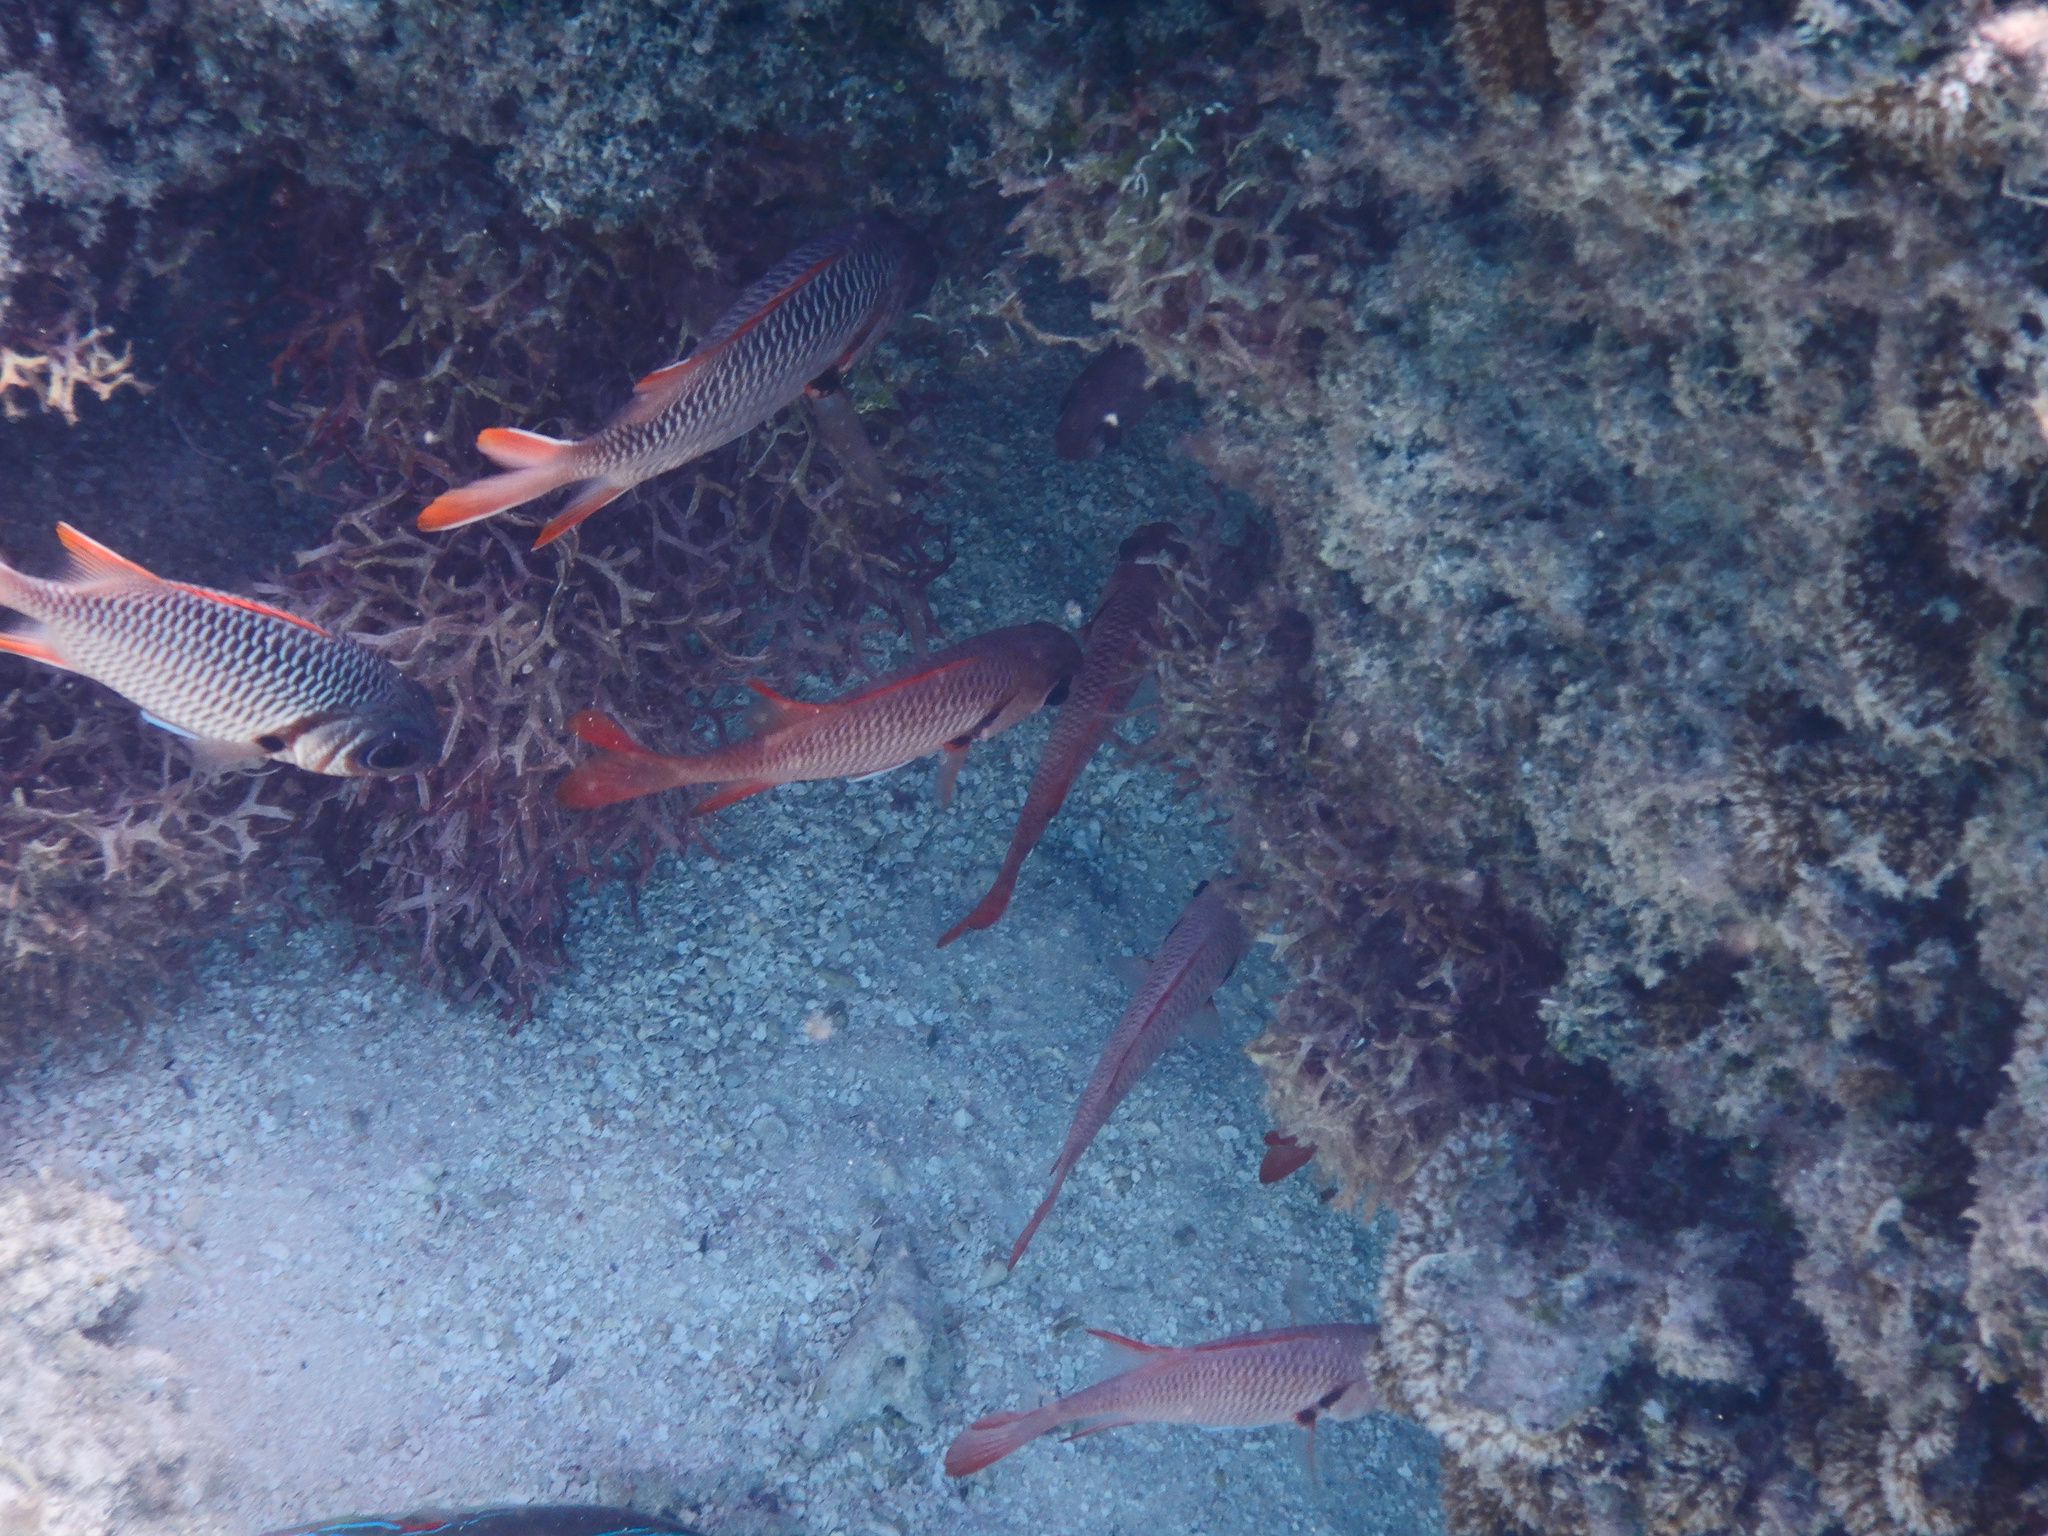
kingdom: Animalia
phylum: Chordata
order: Beryciformes
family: Holocentridae
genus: Myripristis
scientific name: Myripristis violacea
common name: Lattice soldierfish
